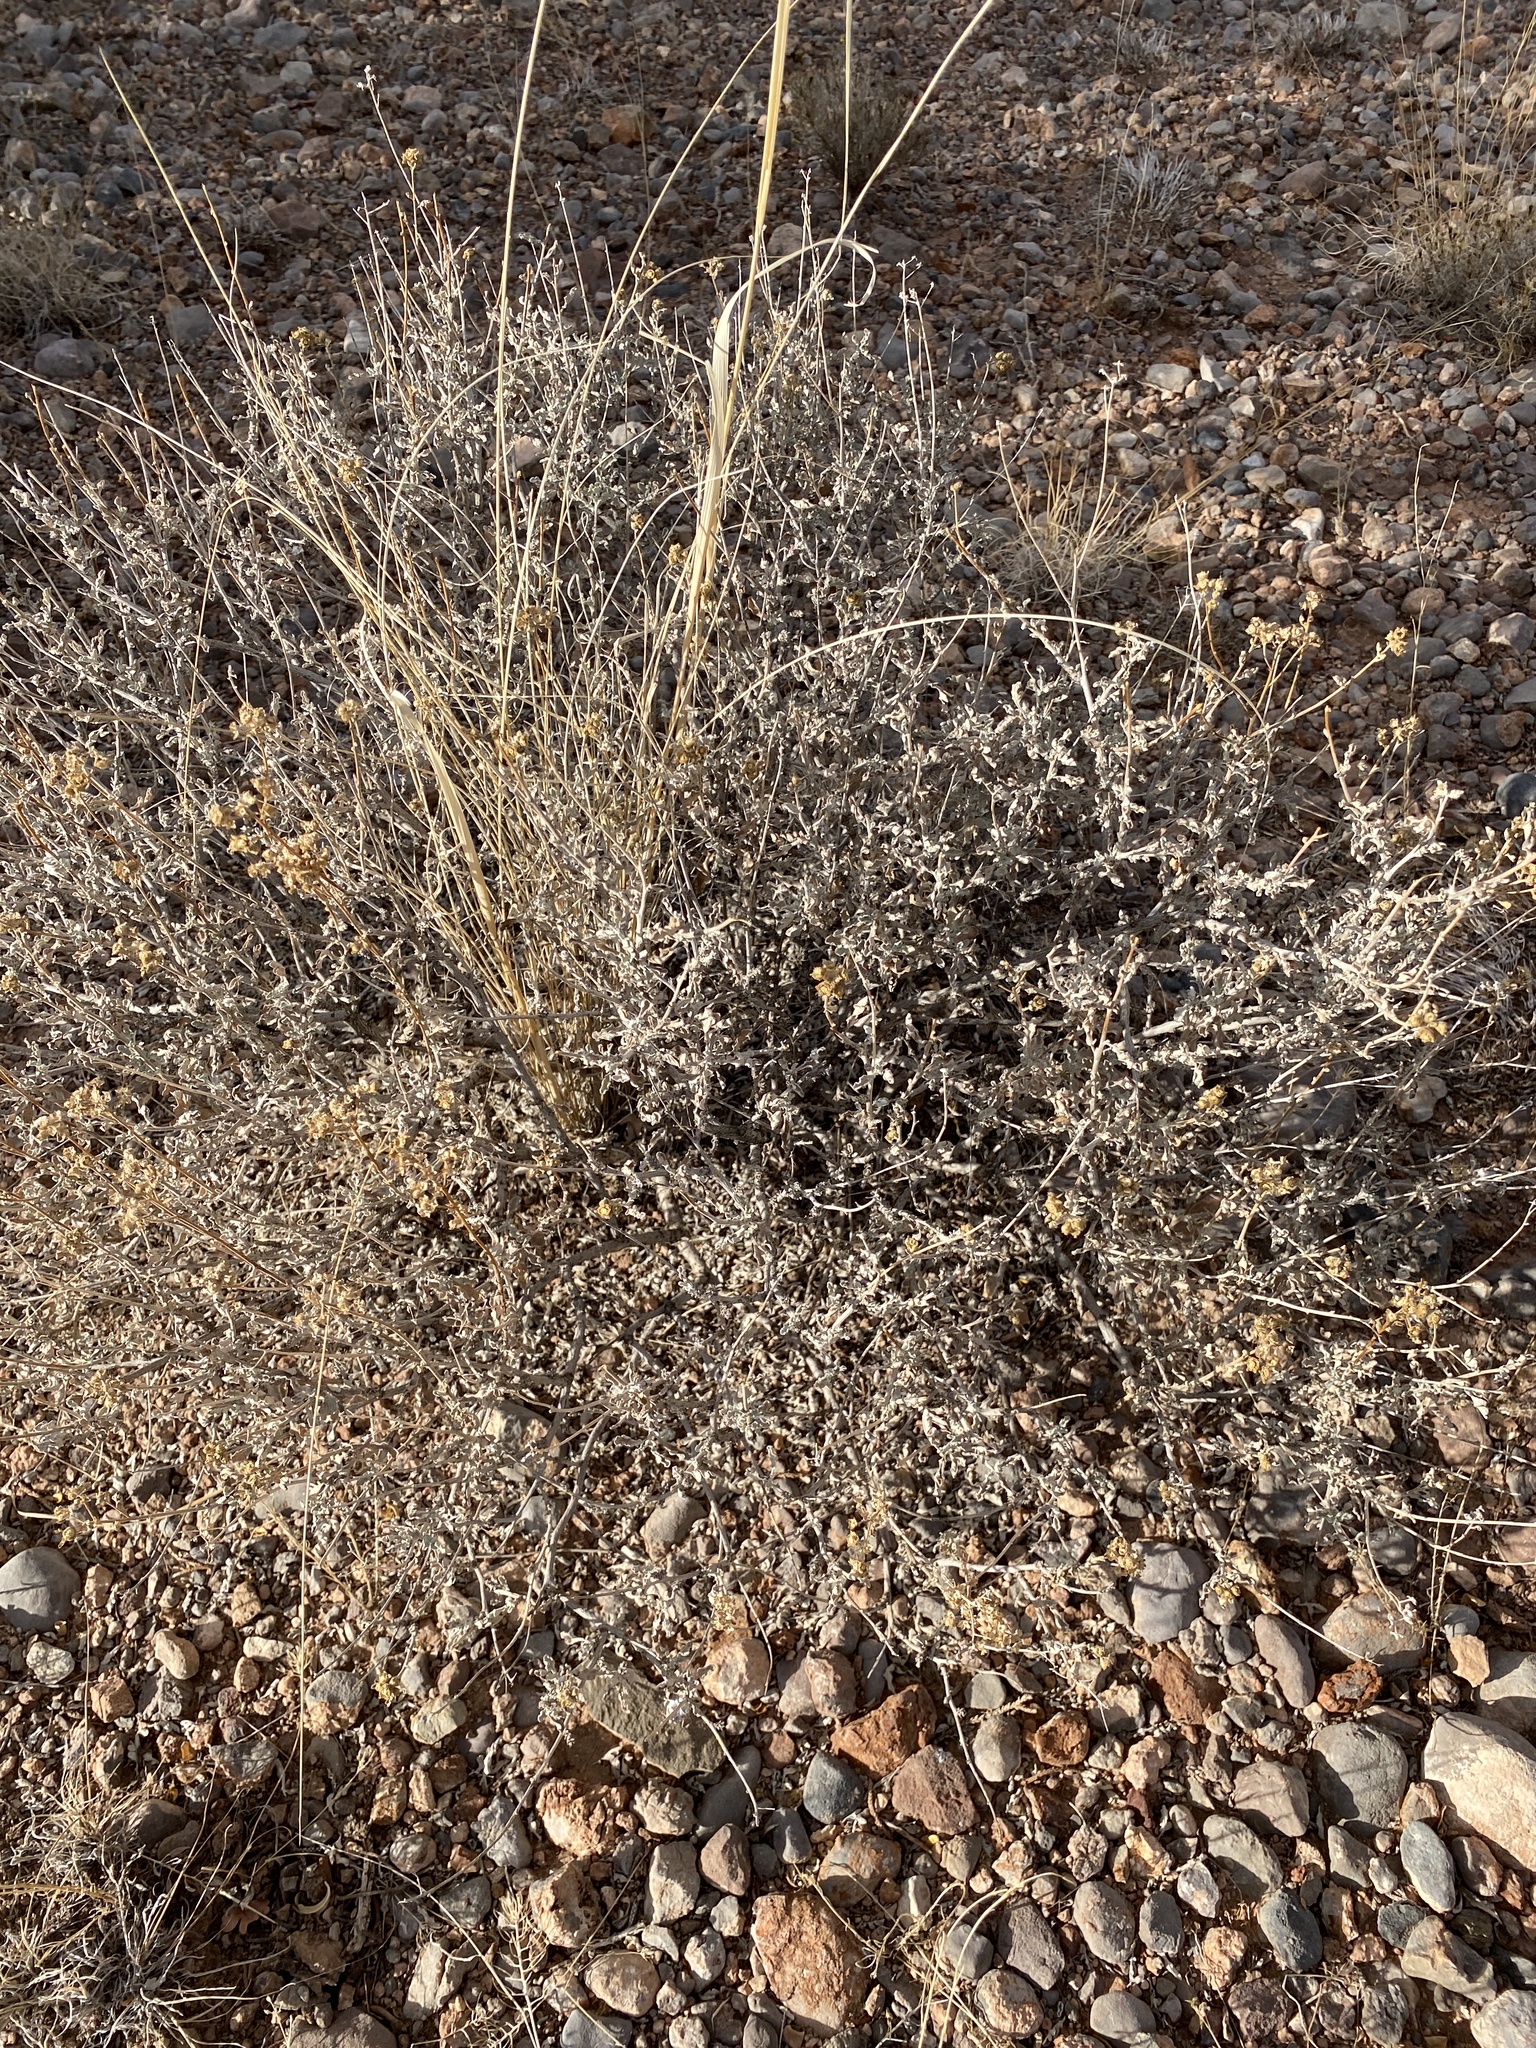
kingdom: Plantae
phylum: Tracheophyta
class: Magnoliopsida
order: Asterales
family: Asteraceae
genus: Parthenium
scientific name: Parthenium incanum
